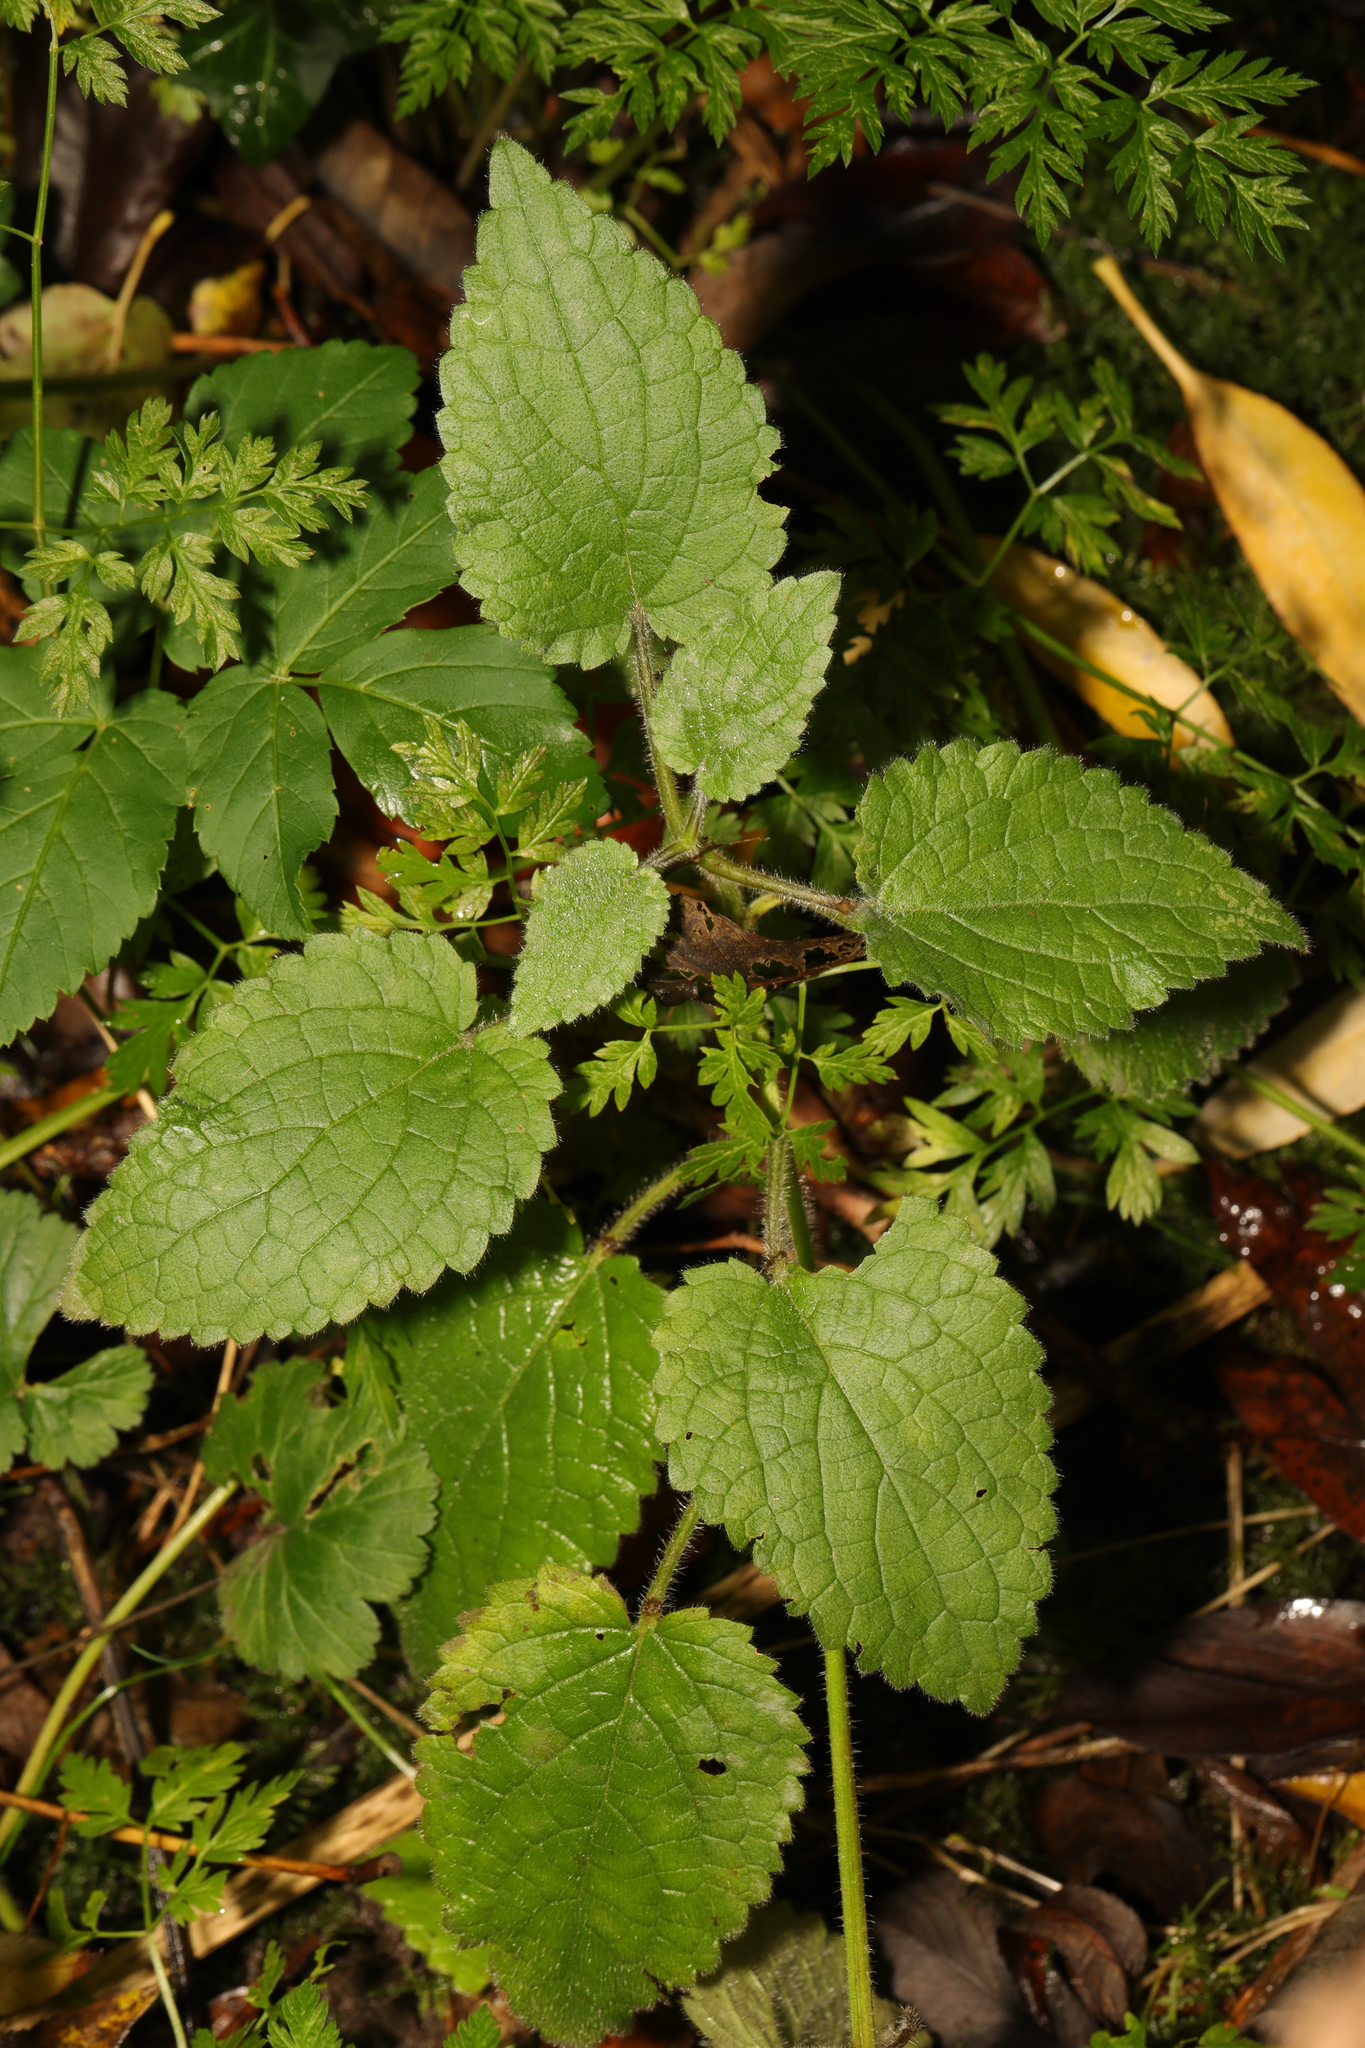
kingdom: Plantae
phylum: Tracheophyta
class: Magnoliopsida
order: Lamiales
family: Lamiaceae
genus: Stachys
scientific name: Stachys sylvatica
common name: Hedge woundwort
